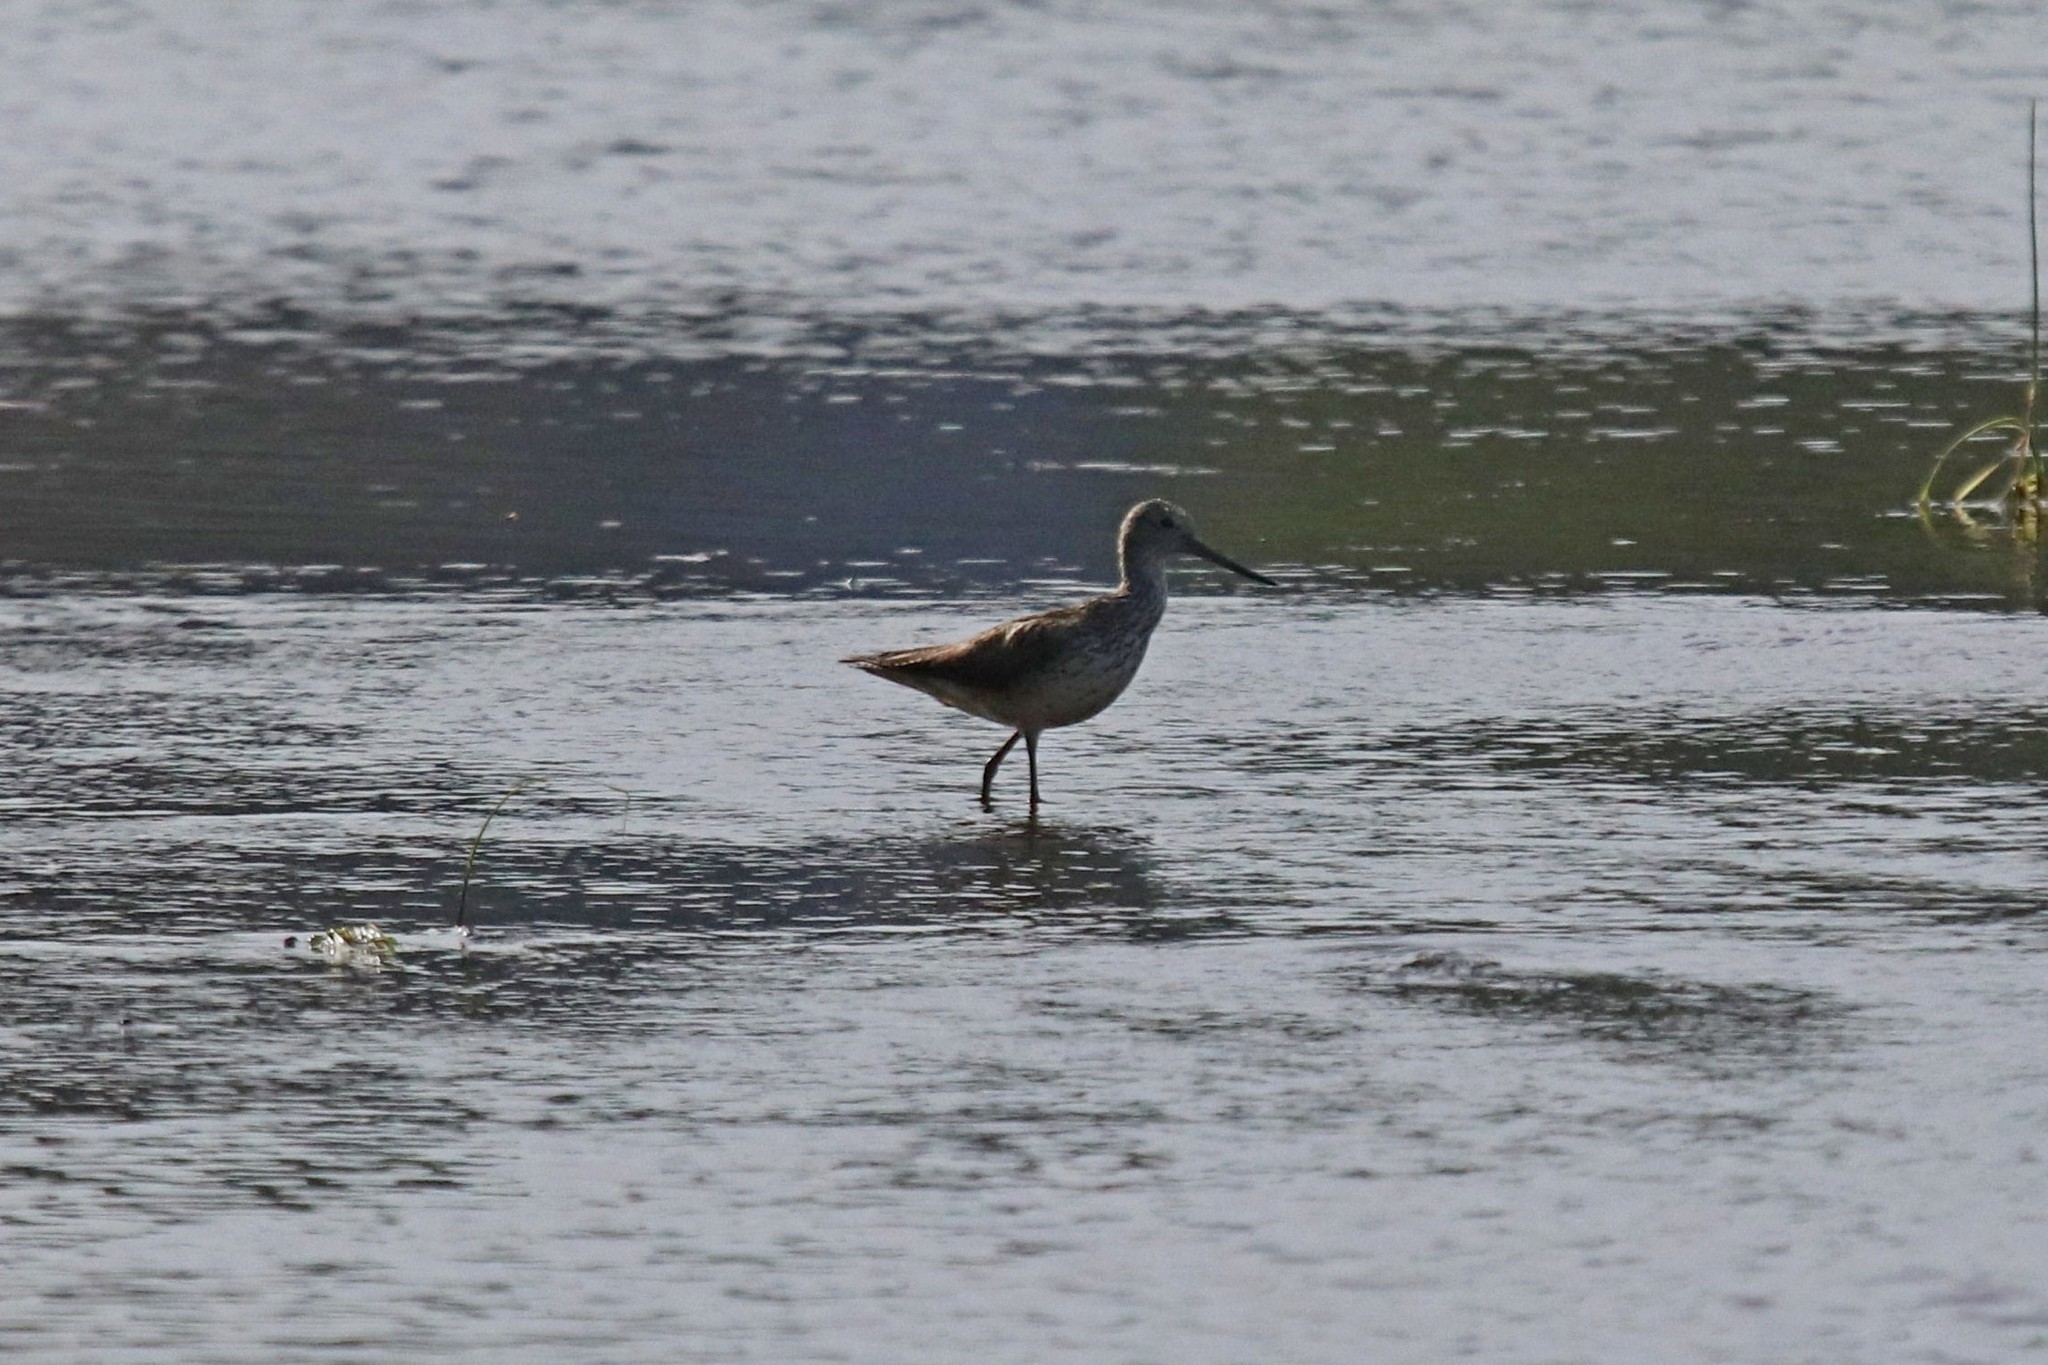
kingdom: Animalia
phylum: Chordata
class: Aves
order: Charadriiformes
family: Scolopacidae
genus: Tringa
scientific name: Tringa nebularia
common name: Common greenshank
